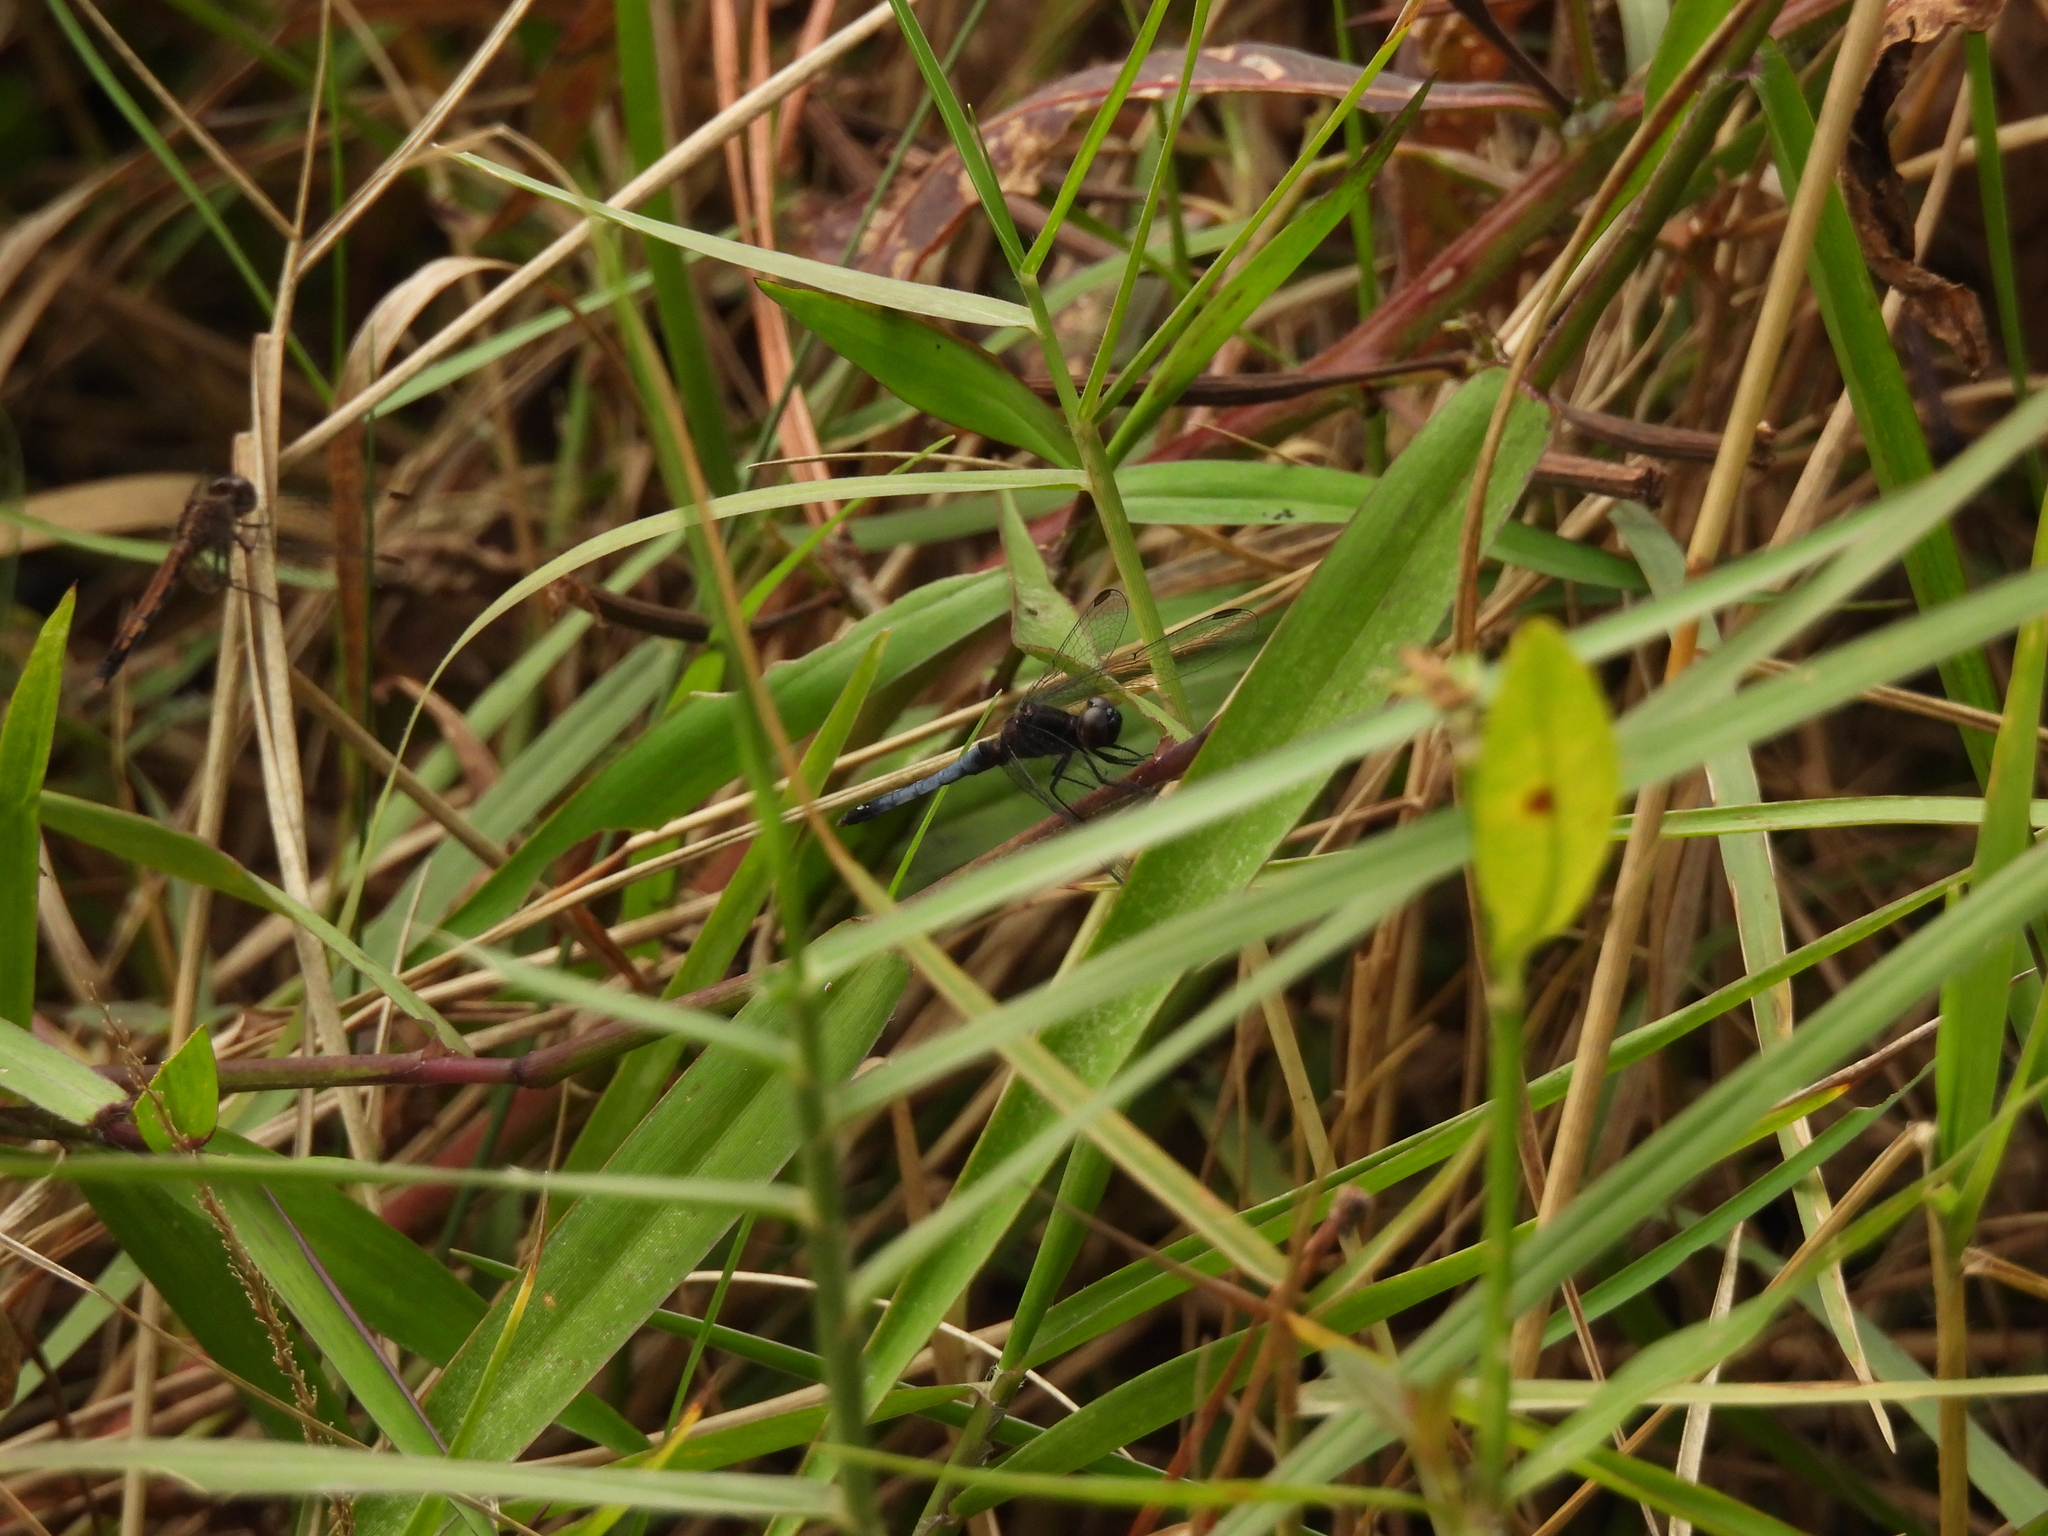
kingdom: Animalia
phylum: Arthropoda
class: Insecta
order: Odonata
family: Libellulidae
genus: Erythrodiplax
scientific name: Erythrodiplax minuscula
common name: Little blue dragonlet
